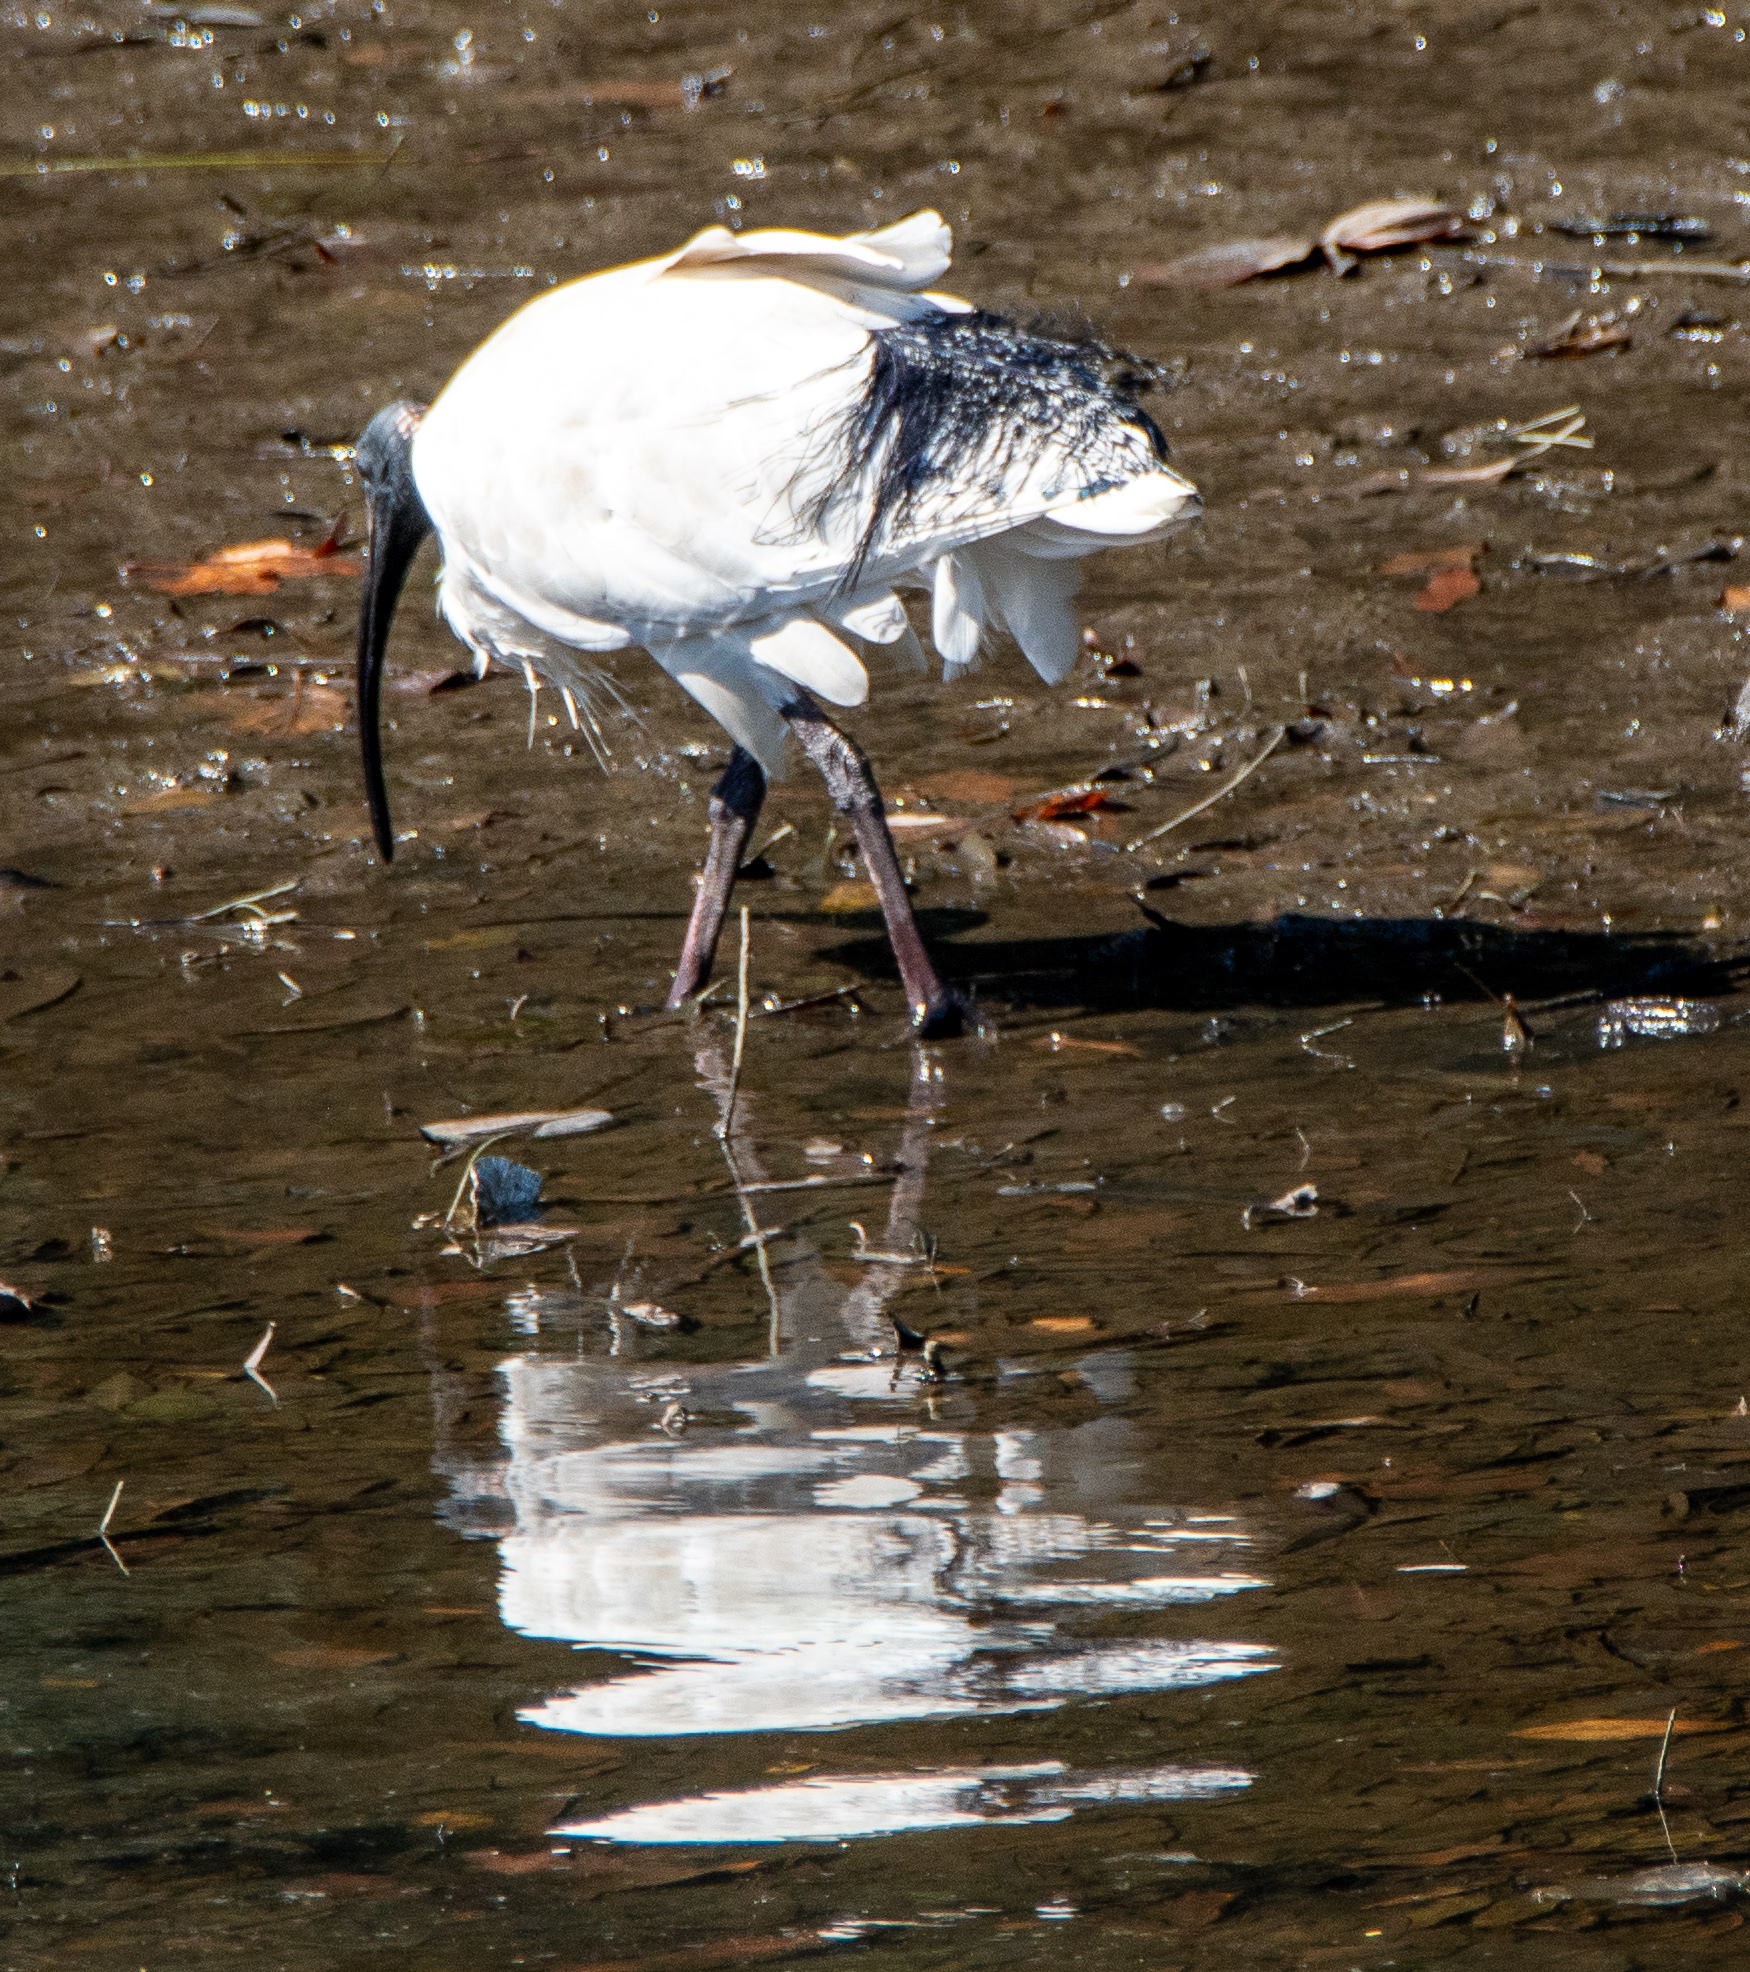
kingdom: Animalia
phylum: Chordata
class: Aves
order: Pelecaniformes
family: Threskiornithidae
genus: Threskiornis
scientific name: Threskiornis molucca
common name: Australian white ibis
